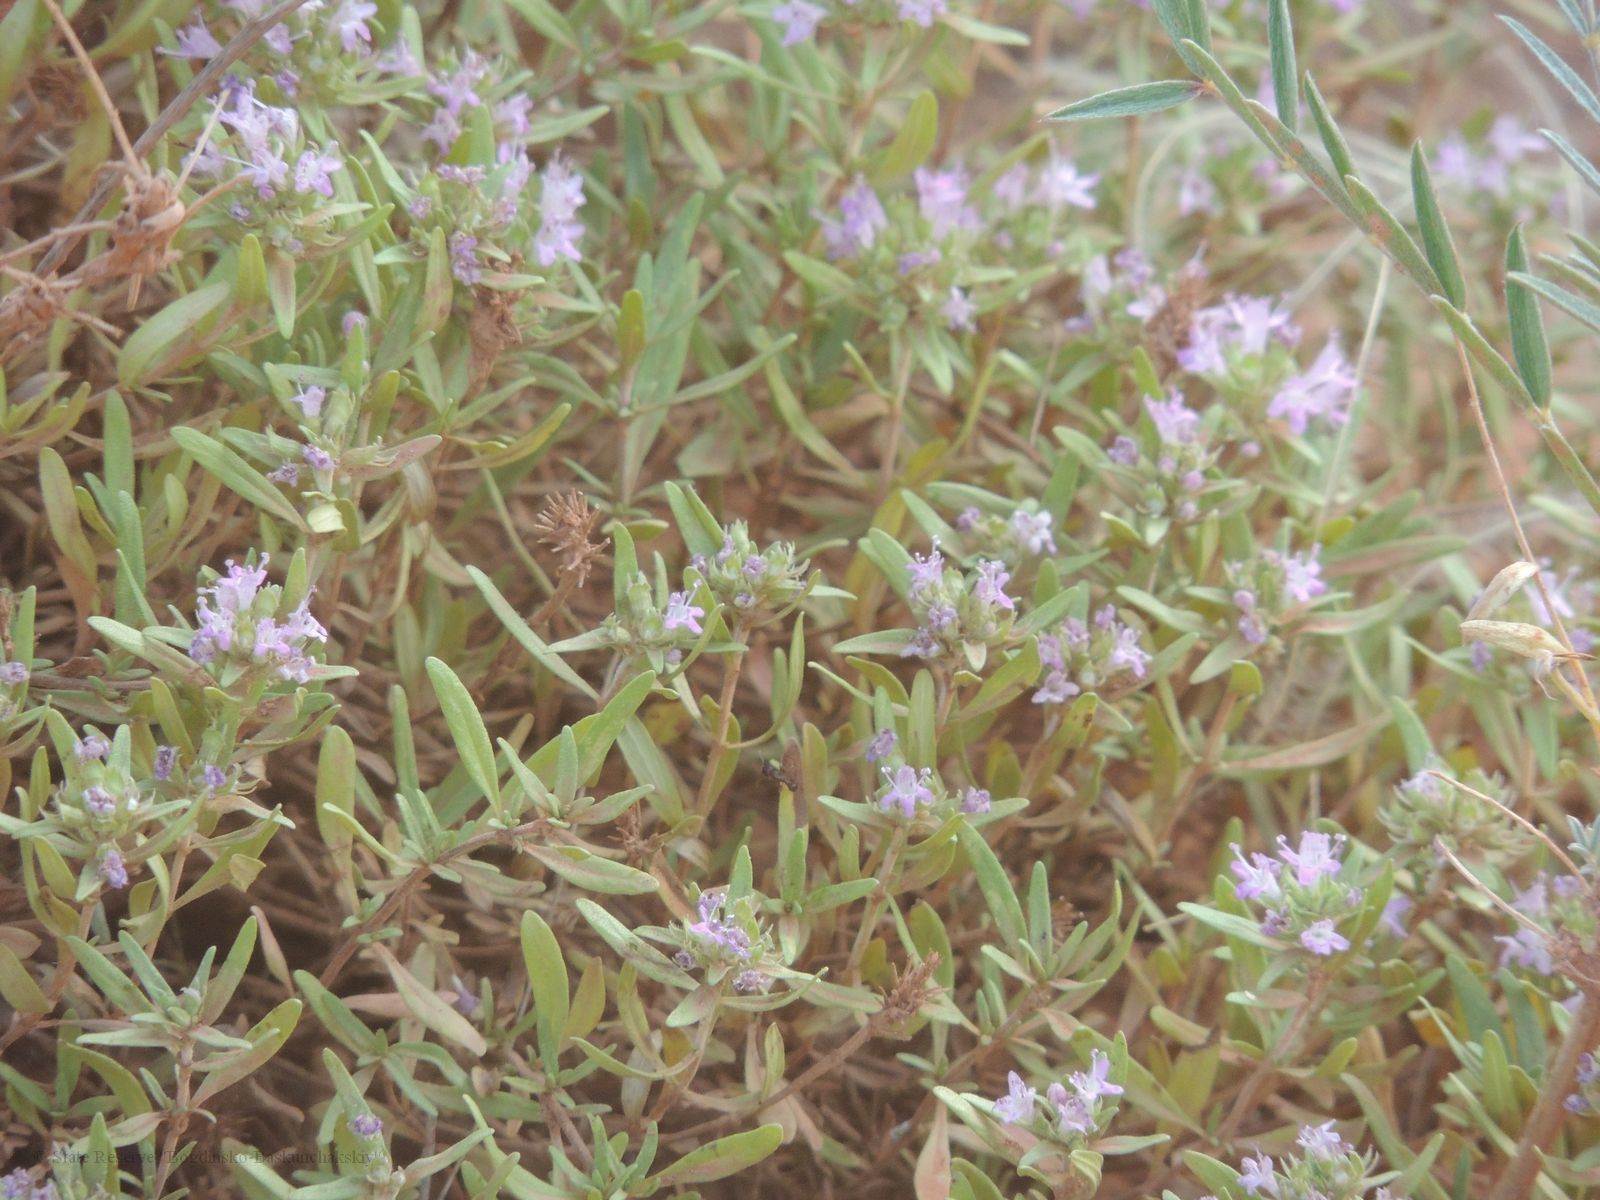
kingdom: Plantae
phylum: Tracheophyta
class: Magnoliopsida
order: Lamiales
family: Lamiaceae
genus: Thymus
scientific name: Thymus kirgisorum
